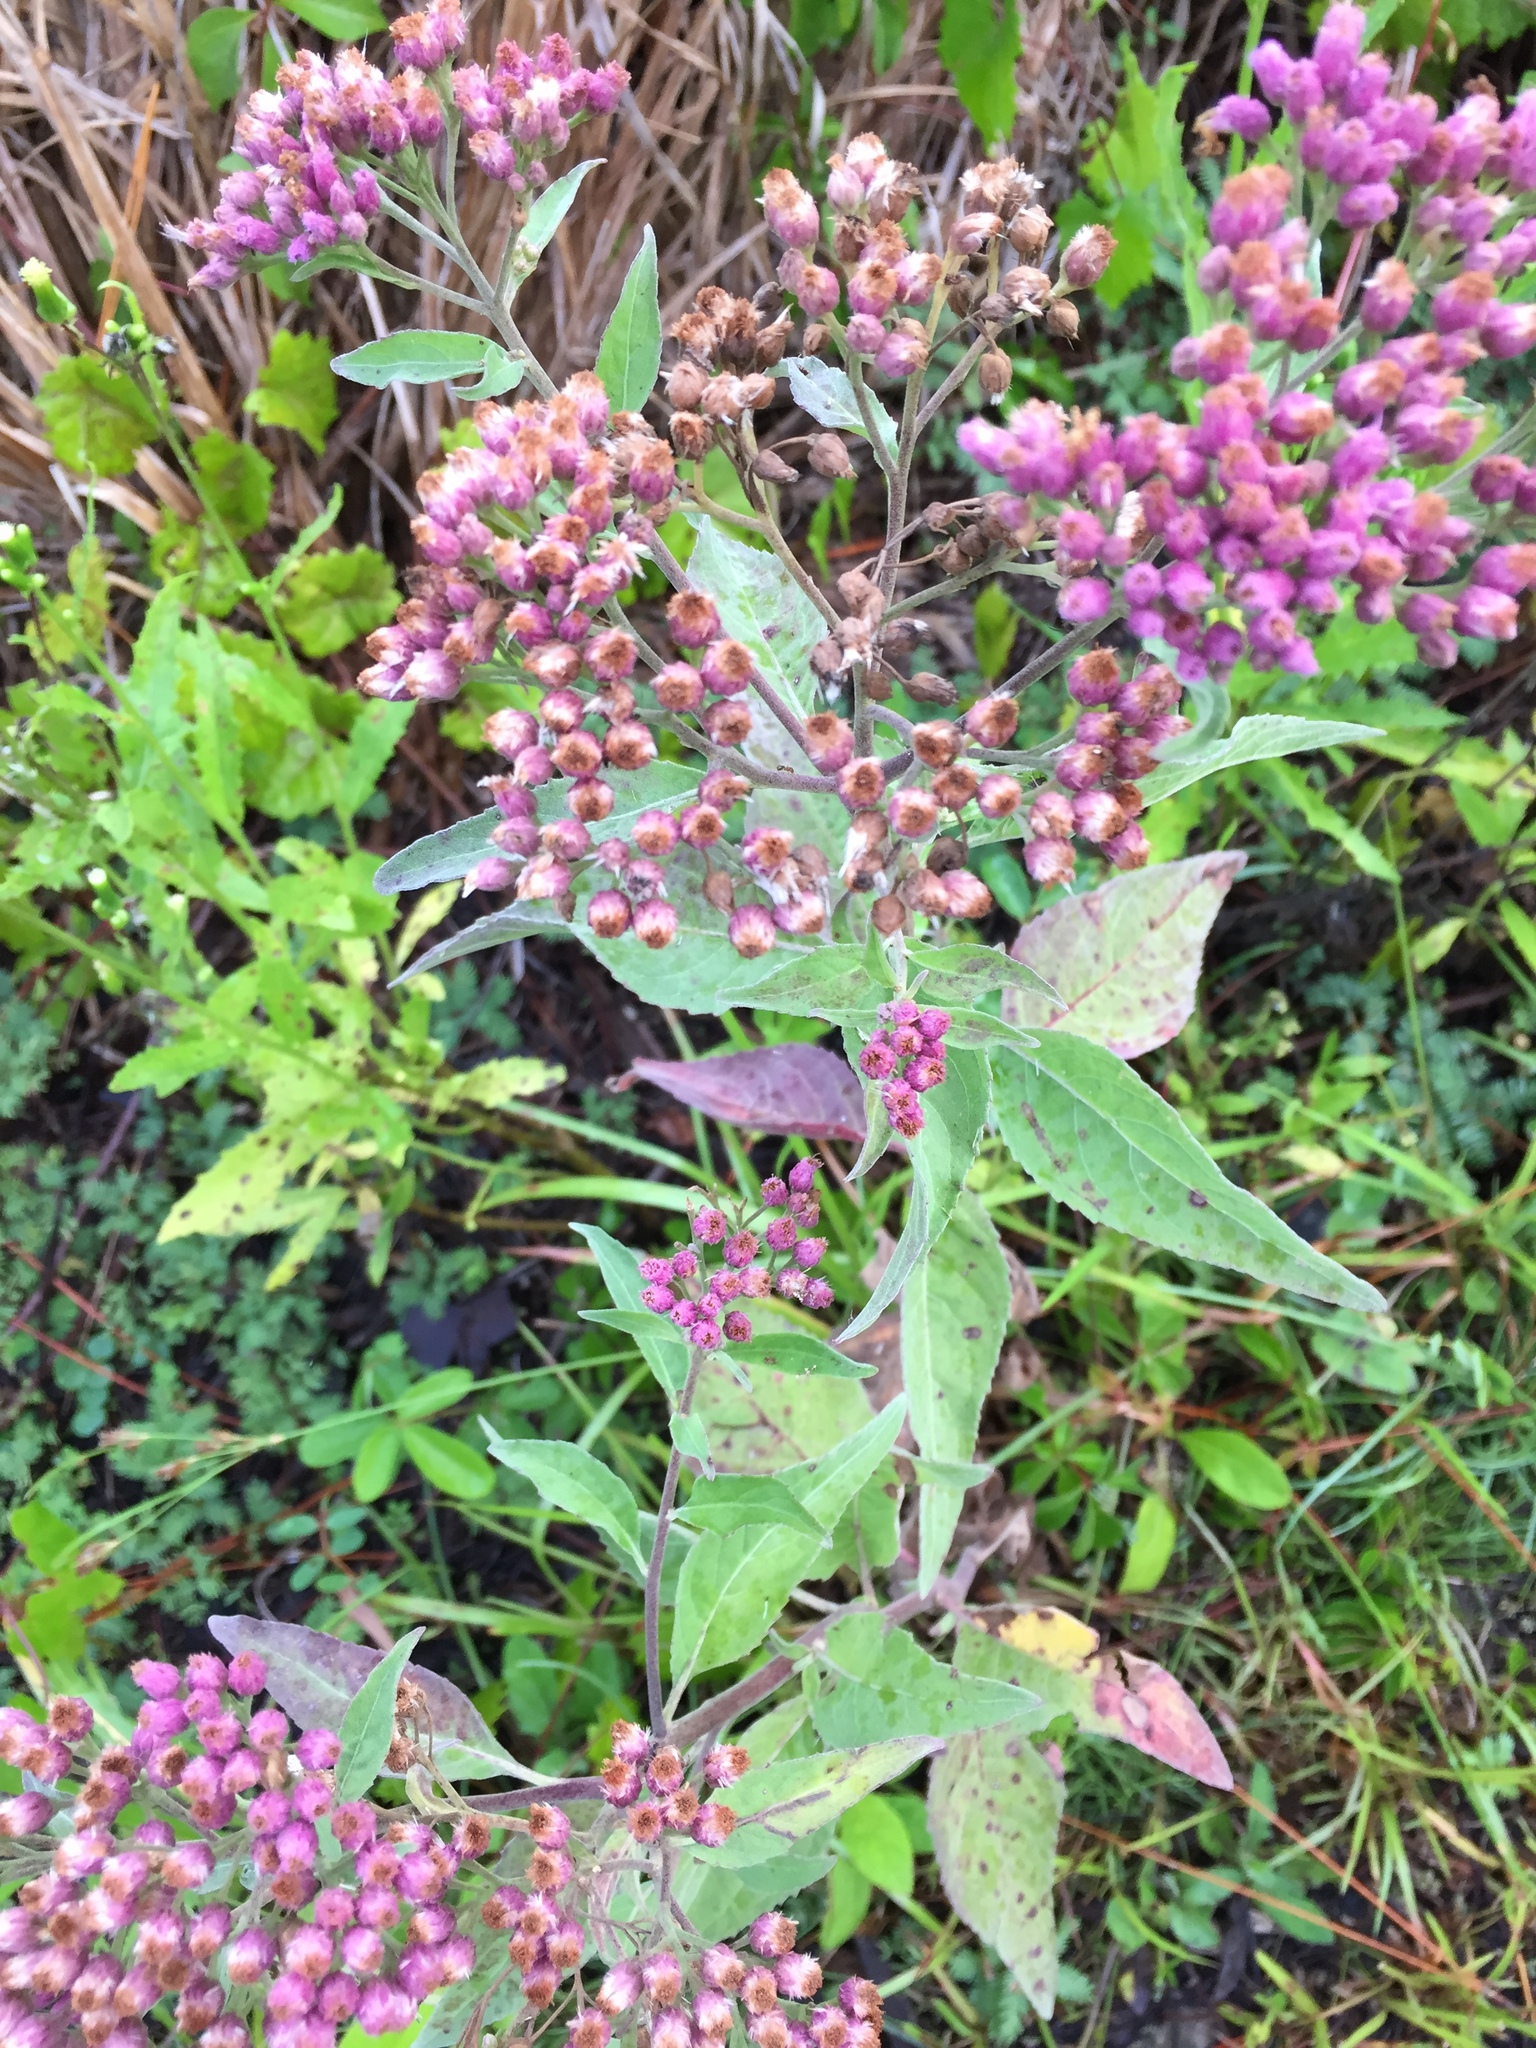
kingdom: Plantae
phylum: Tracheophyta
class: Magnoliopsida
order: Asterales
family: Asteraceae
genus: Pluchea
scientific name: Pluchea odorata
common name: Saltmarsh fleabane
